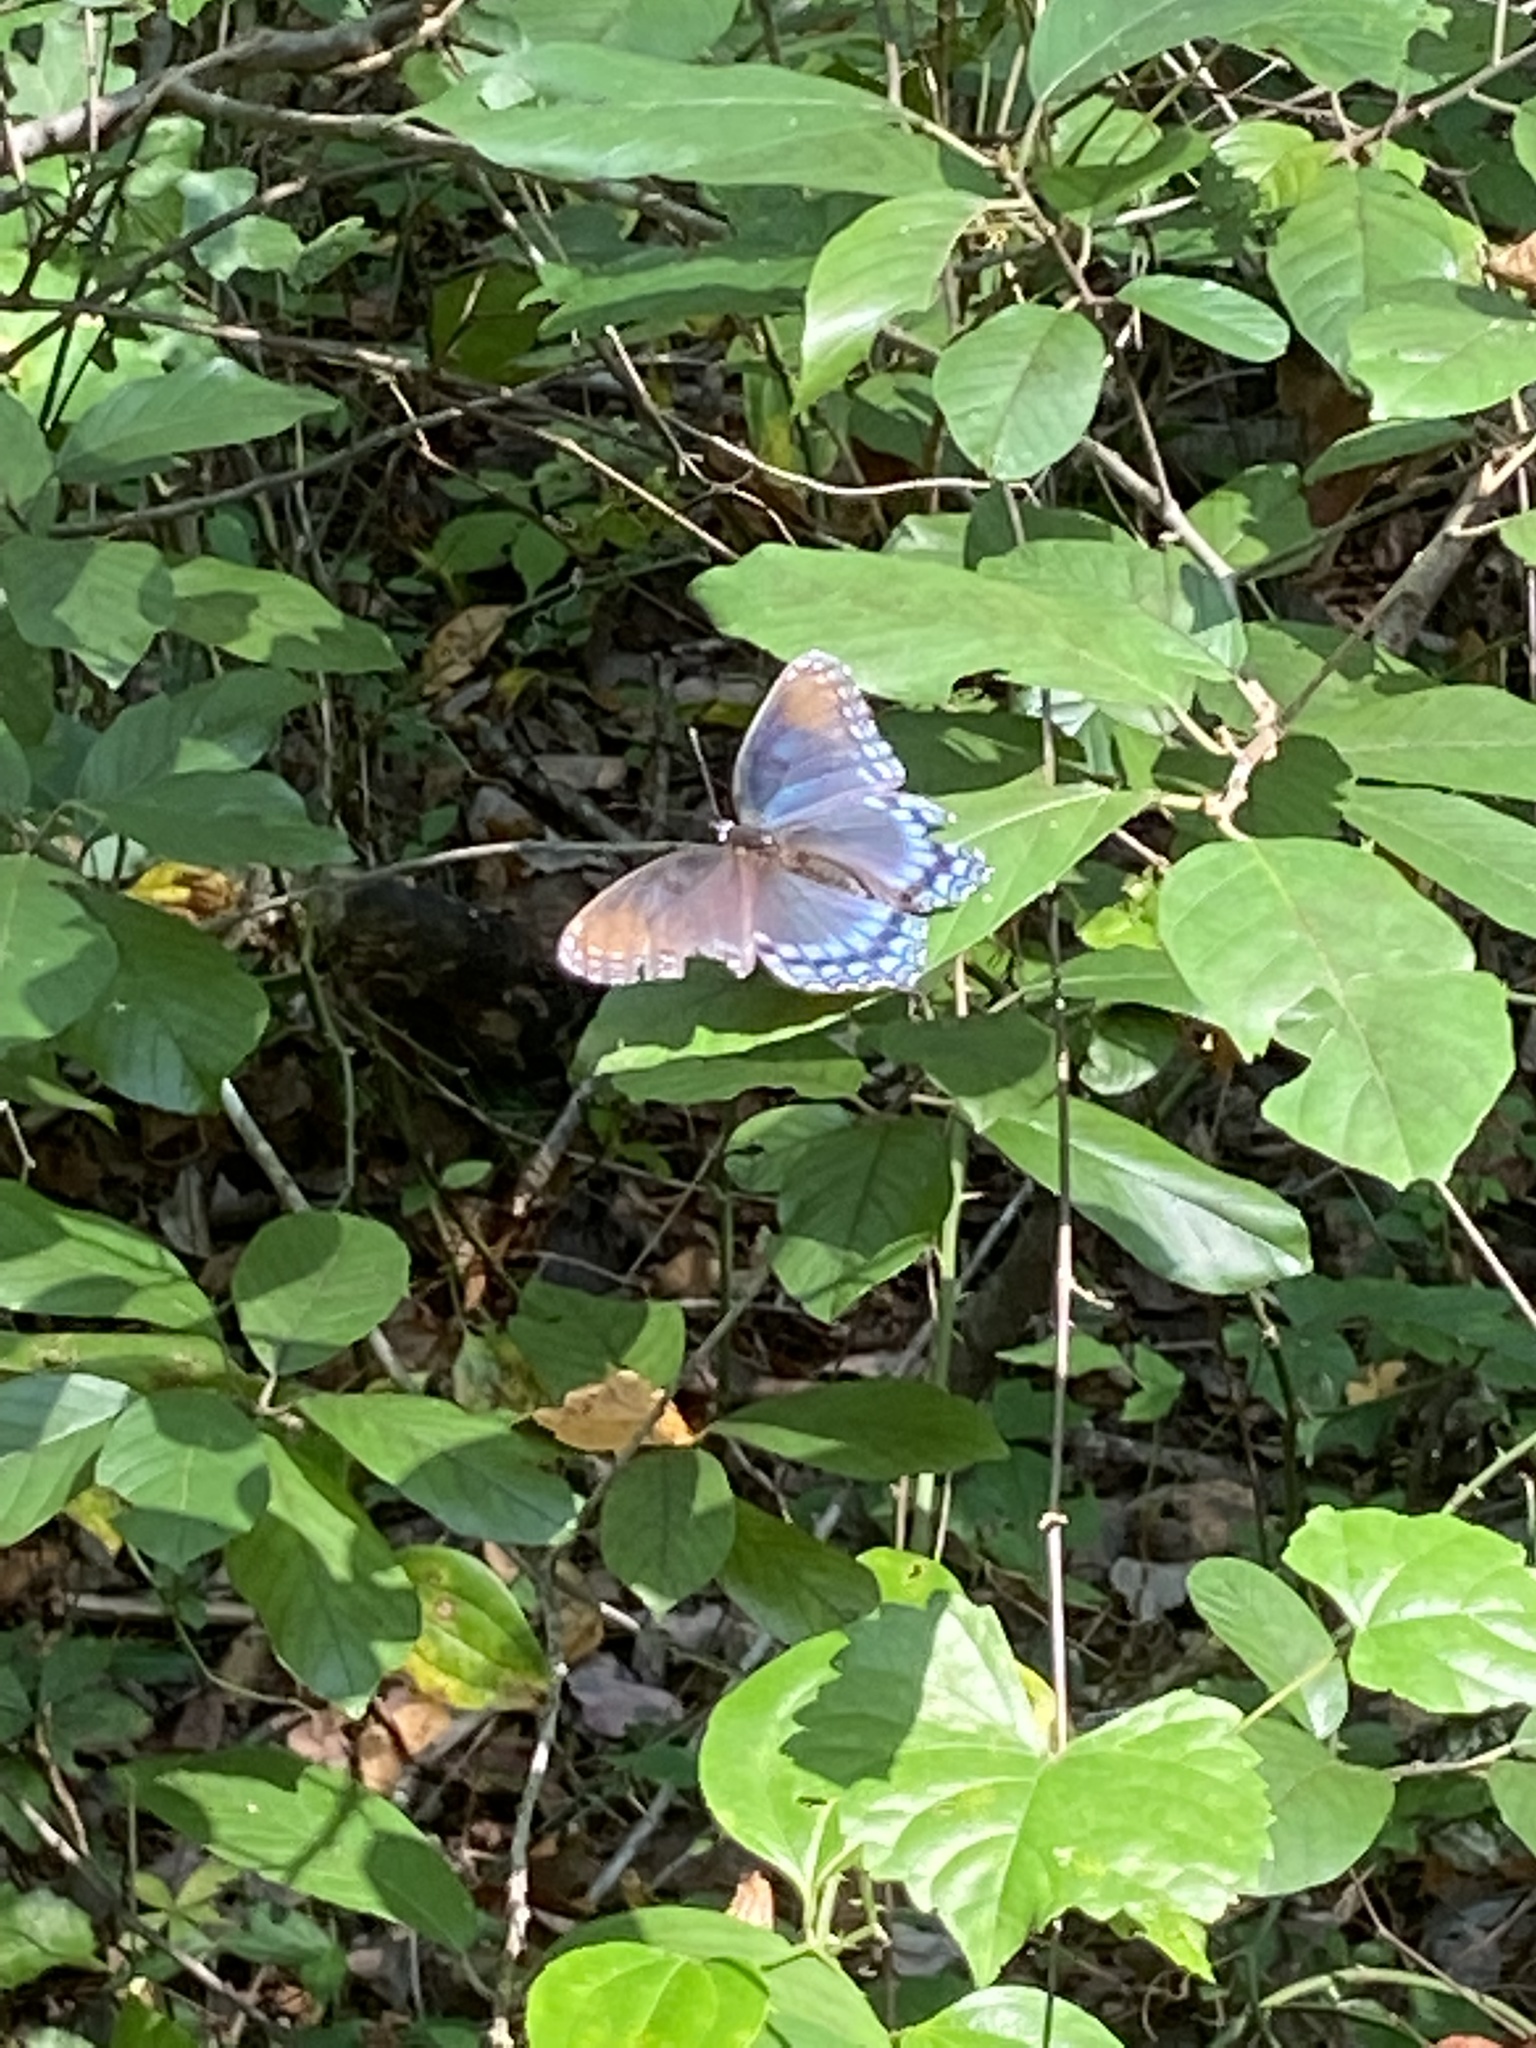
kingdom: Animalia
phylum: Arthropoda
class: Insecta
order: Lepidoptera
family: Nymphalidae
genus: Limenitis
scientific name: Limenitis astyanax
